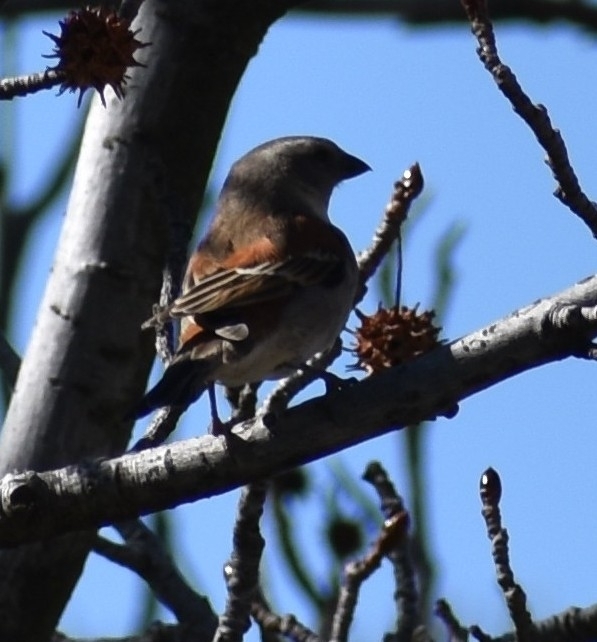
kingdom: Animalia
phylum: Chordata
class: Aves
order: Passeriformes
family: Passeridae
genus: Passer
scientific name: Passer melanurus
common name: Cape sparrow
